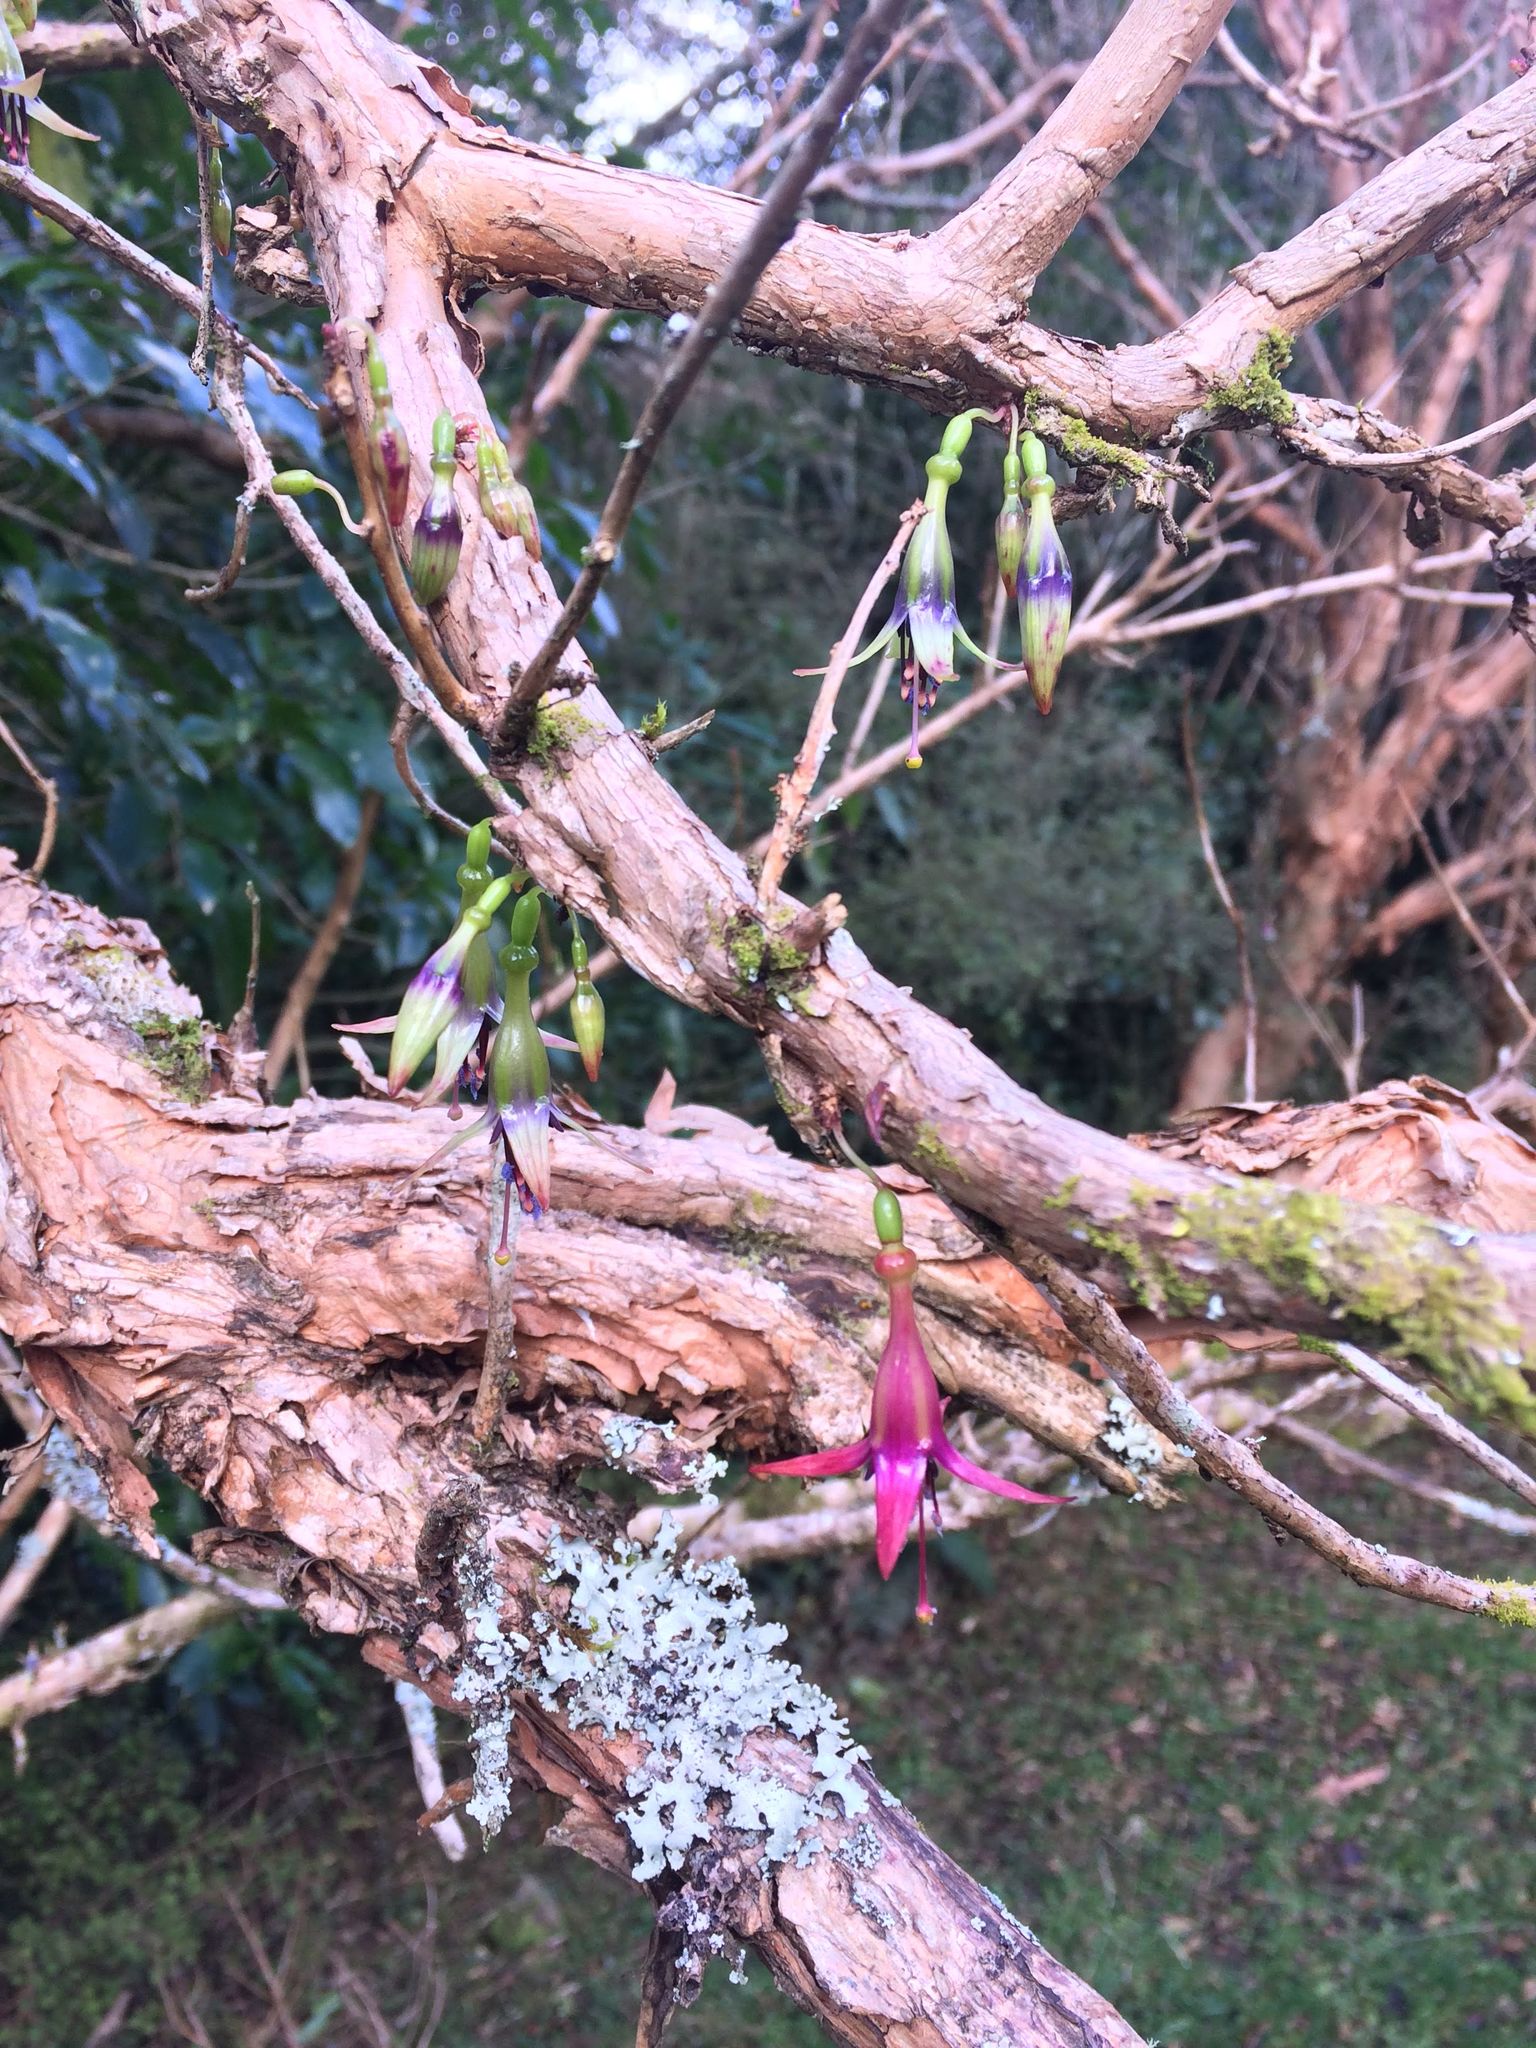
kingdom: Plantae
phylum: Tracheophyta
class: Magnoliopsida
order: Myrtales
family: Onagraceae
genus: Fuchsia
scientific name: Fuchsia excorticata
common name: Tree fuchsia
